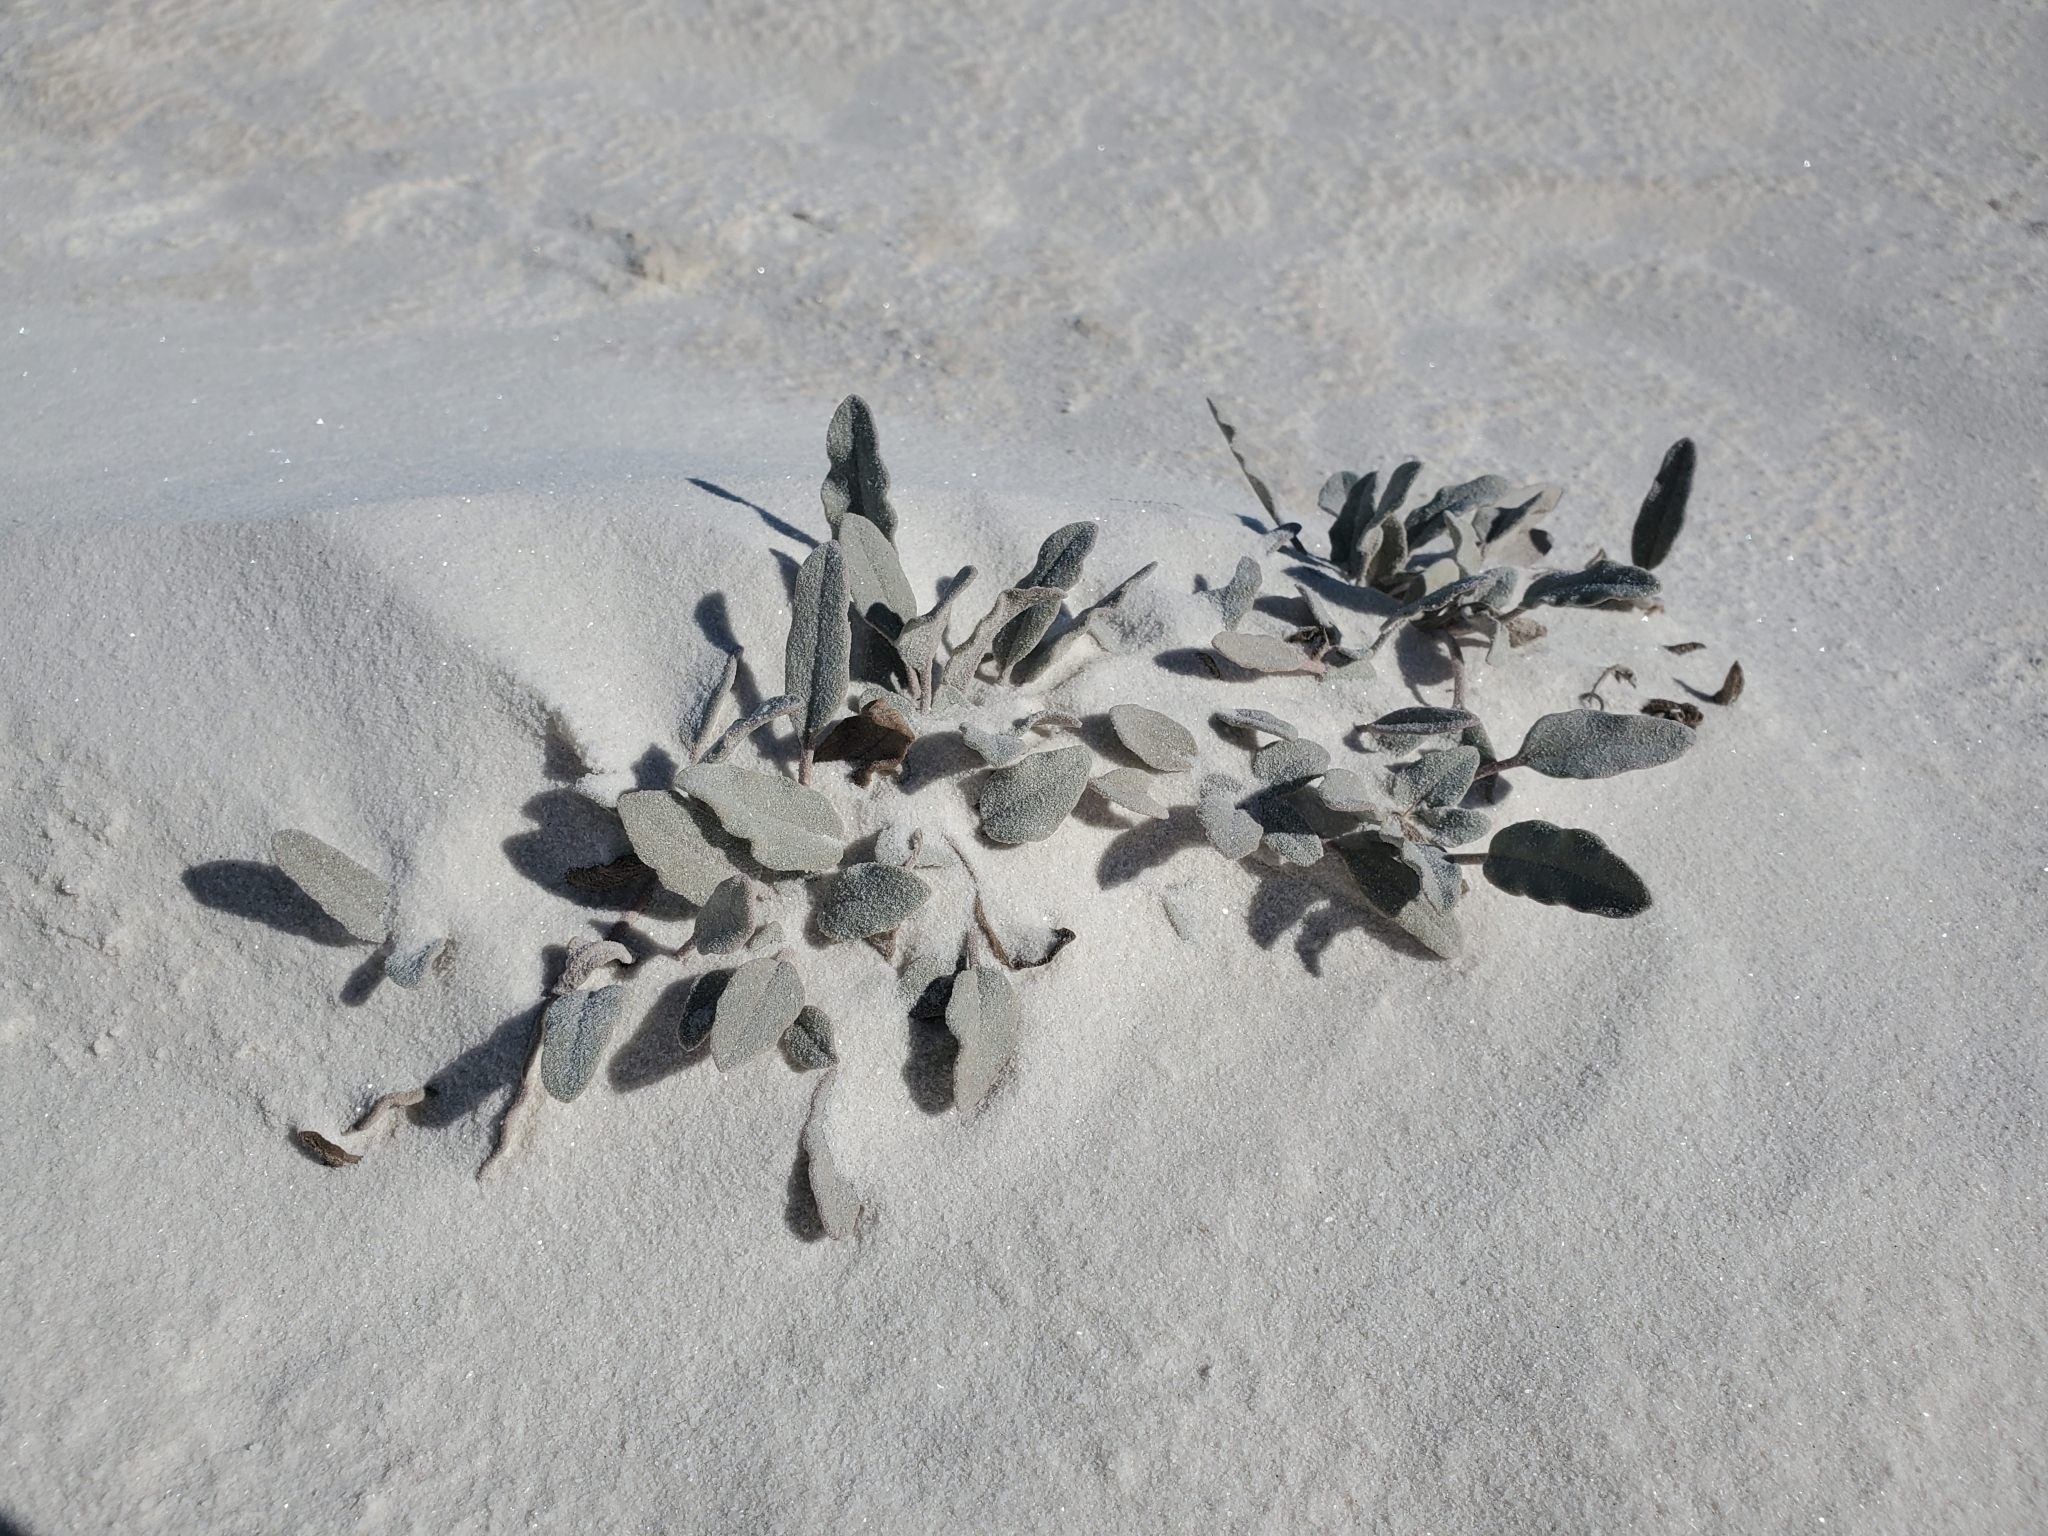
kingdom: Plantae
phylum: Tracheophyta
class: Magnoliopsida
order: Caryophyllales
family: Nyctaginaceae
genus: Abronia
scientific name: Abronia angustifolia
